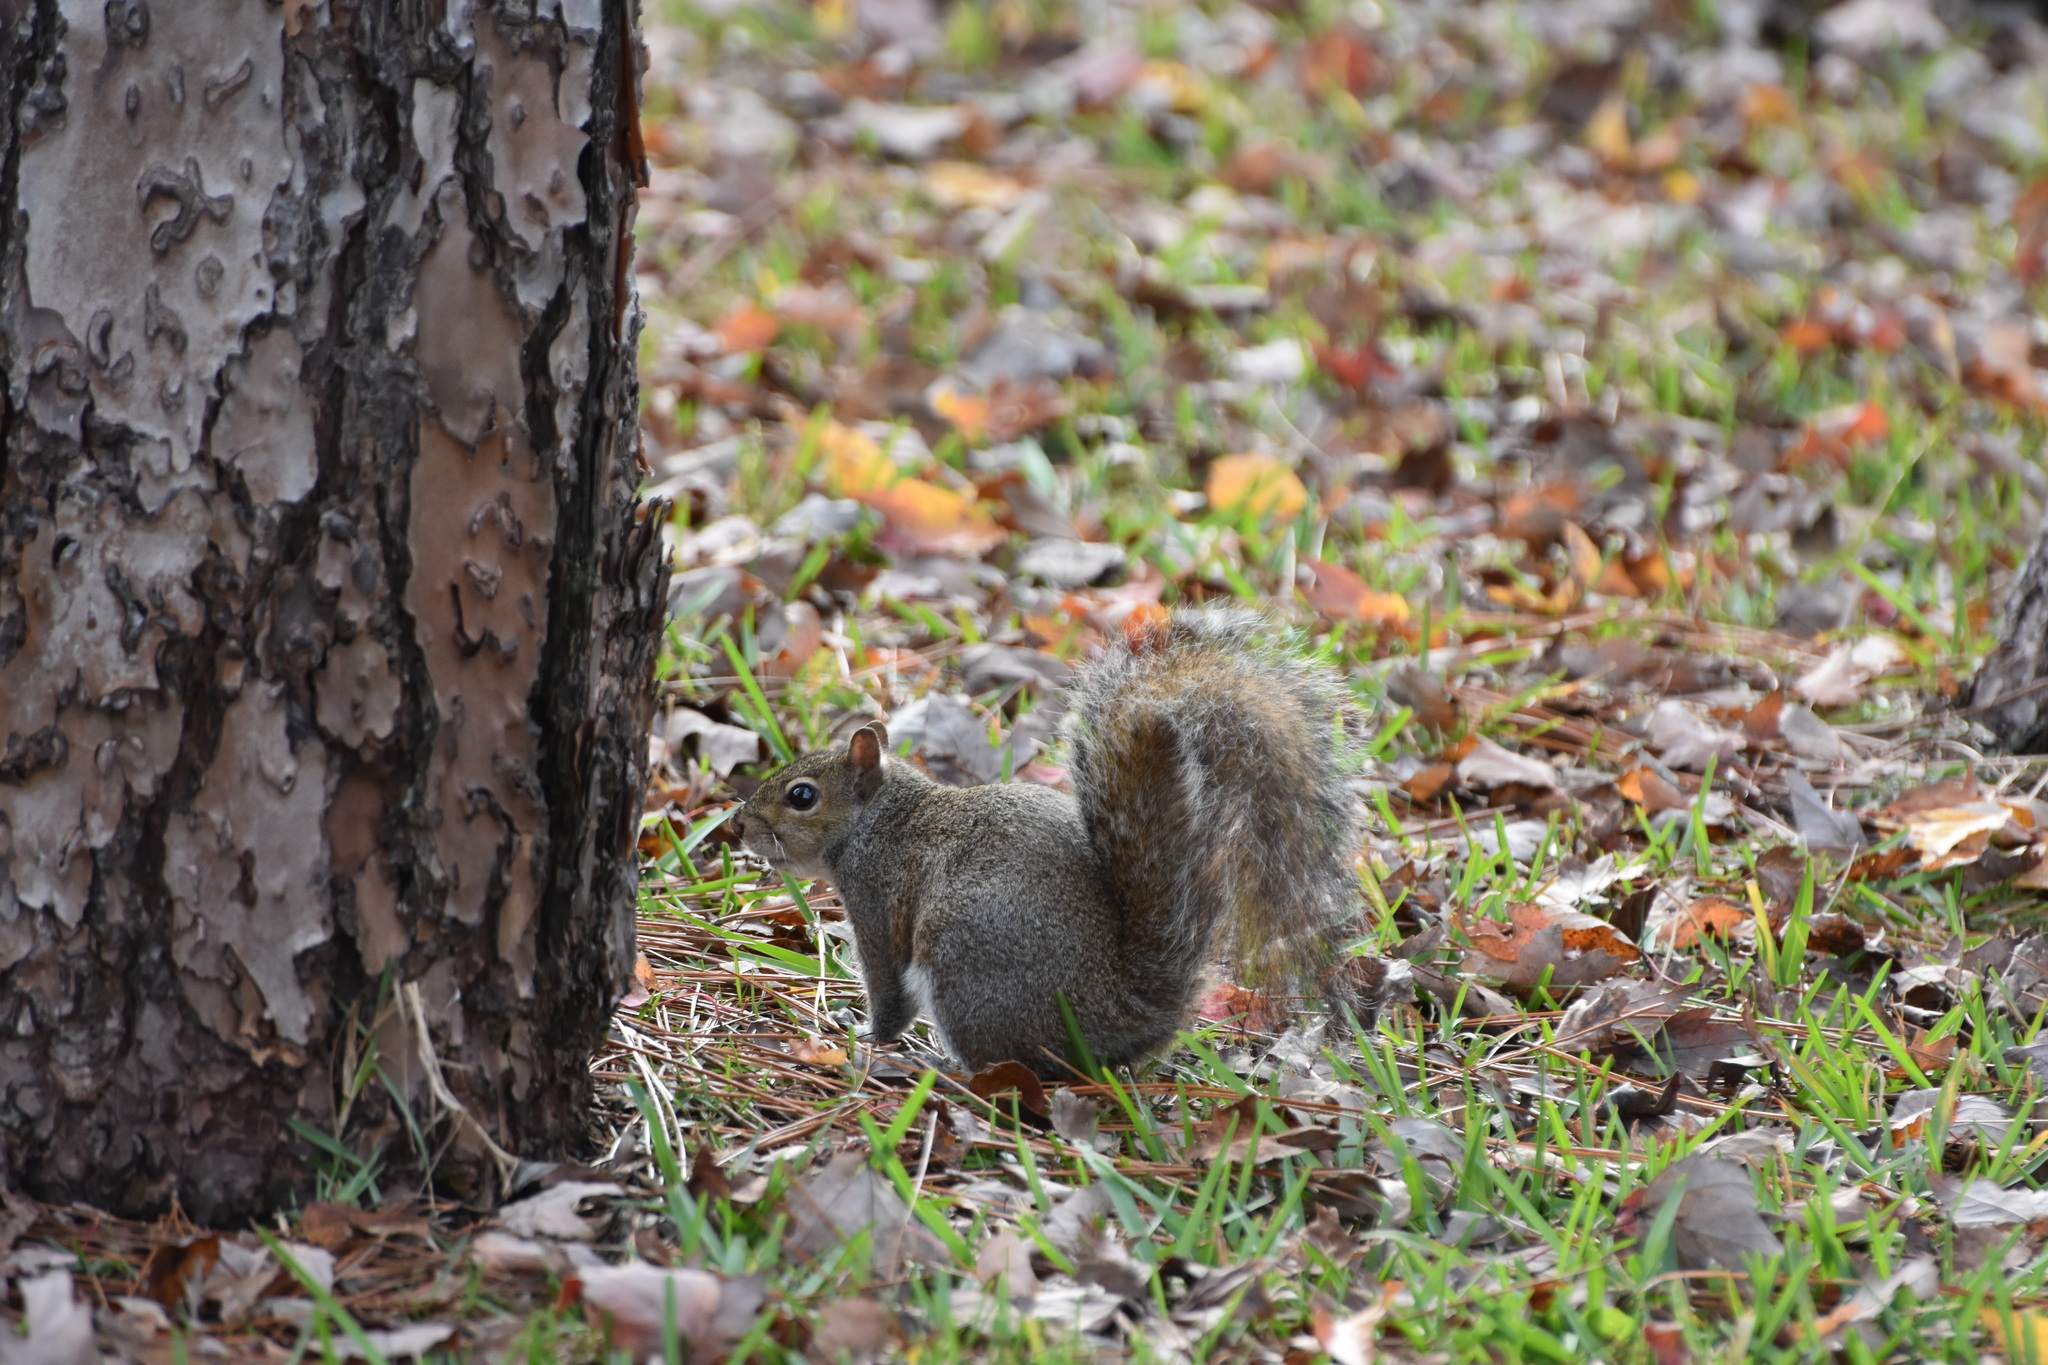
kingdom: Animalia
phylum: Chordata
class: Mammalia
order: Rodentia
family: Sciuridae
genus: Sciurus
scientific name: Sciurus carolinensis
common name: Eastern gray squirrel
